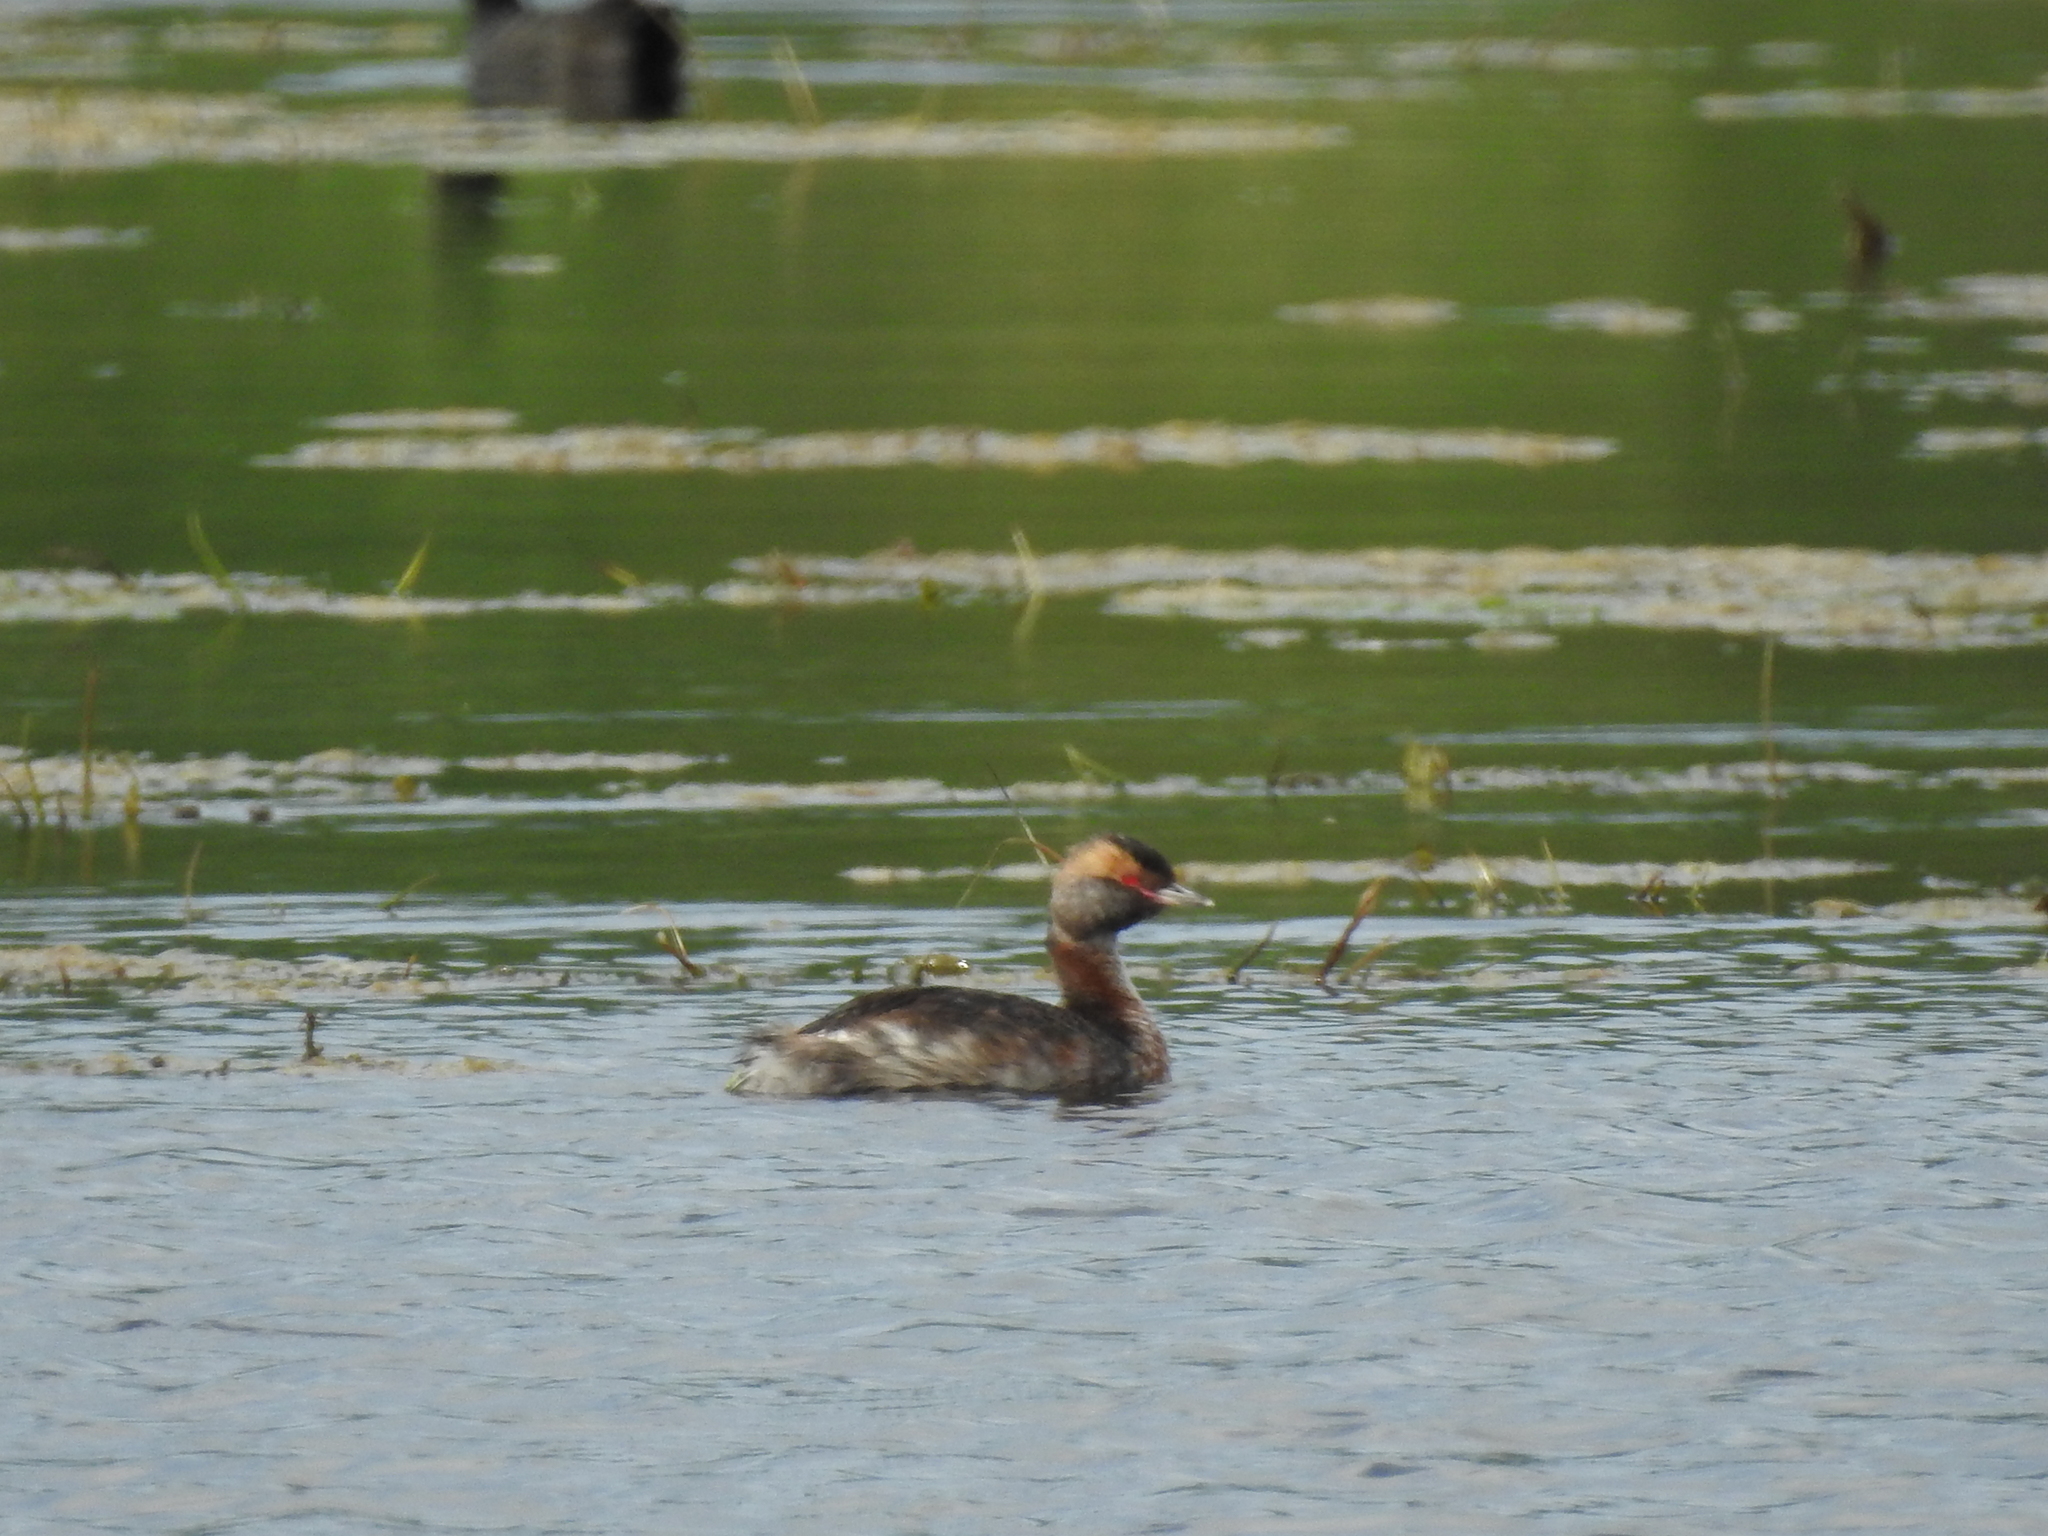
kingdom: Animalia
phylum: Chordata
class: Aves
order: Podicipediformes
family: Podicipedidae
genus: Podiceps
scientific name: Podiceps auritus
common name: Horned grebe
